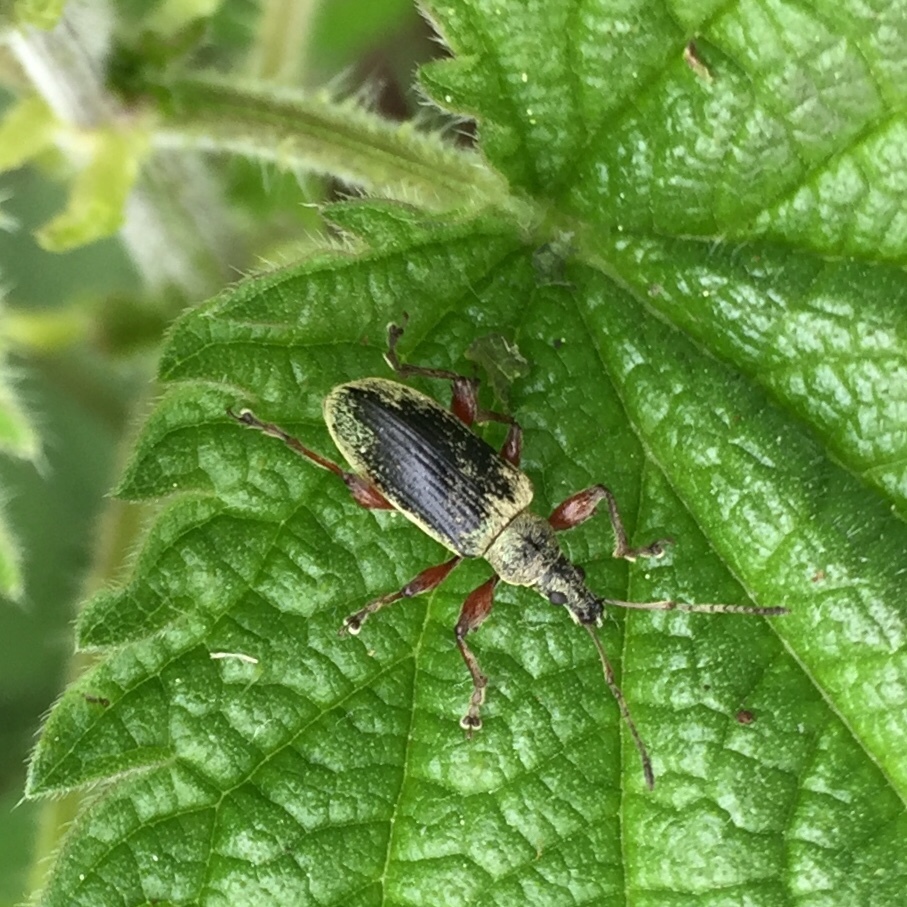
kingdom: Animalia
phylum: Arthropoda
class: Insecta
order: Coleoptera
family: Curculionidae
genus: Phyllobius
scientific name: Phyllobius pomaceus
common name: Green nettle weevil
